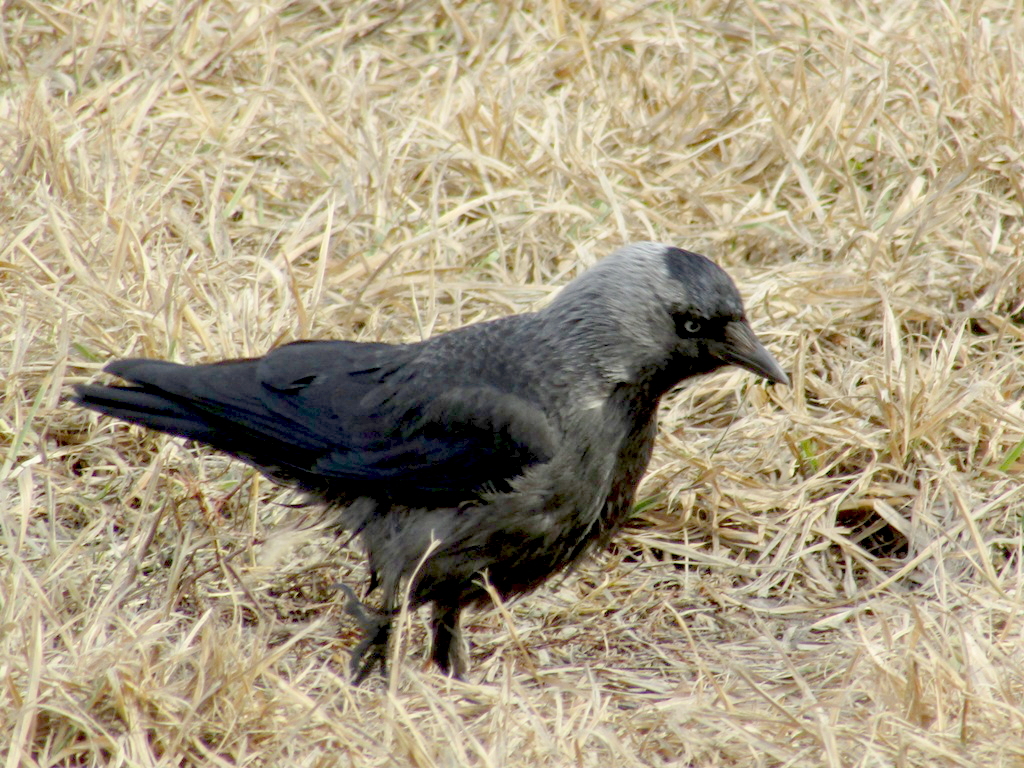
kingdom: Animalia
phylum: Chordata
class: Aves
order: Passeriformes
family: Corvidae
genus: Coloeus
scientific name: Coloeus monedula
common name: Western jackdaw
